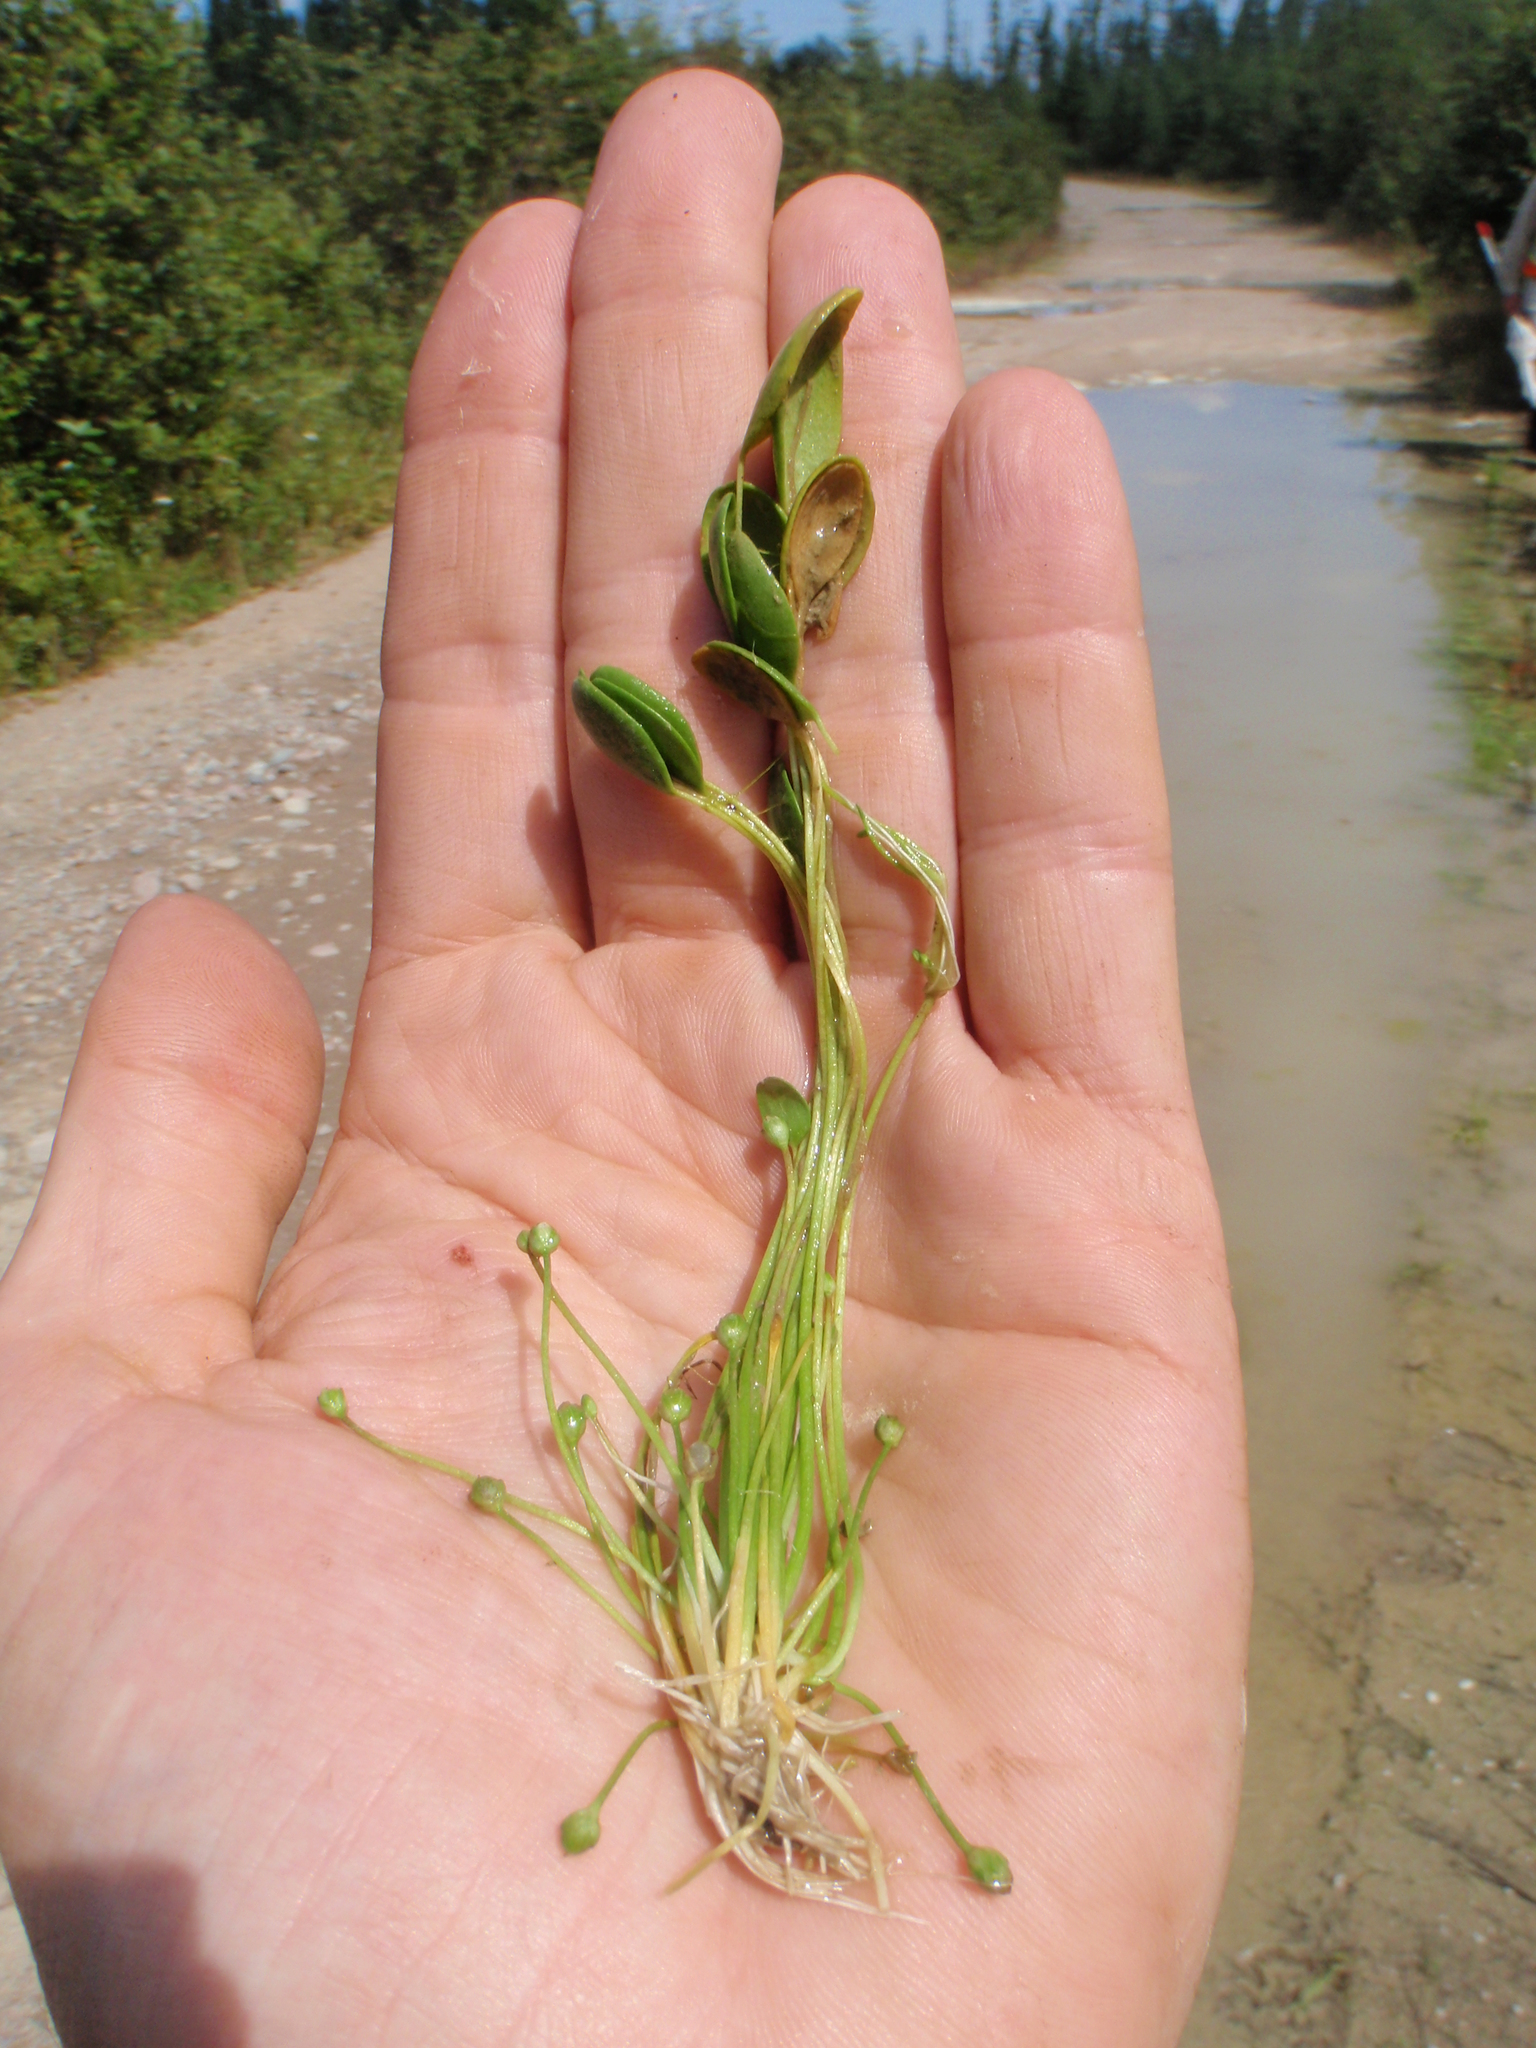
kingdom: Plantae
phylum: Tracheophyta
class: Magnoliopsida
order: Lamiales
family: Scrophulariaceae
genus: Limosella
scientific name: Limosella aquatica
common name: Mudwort
